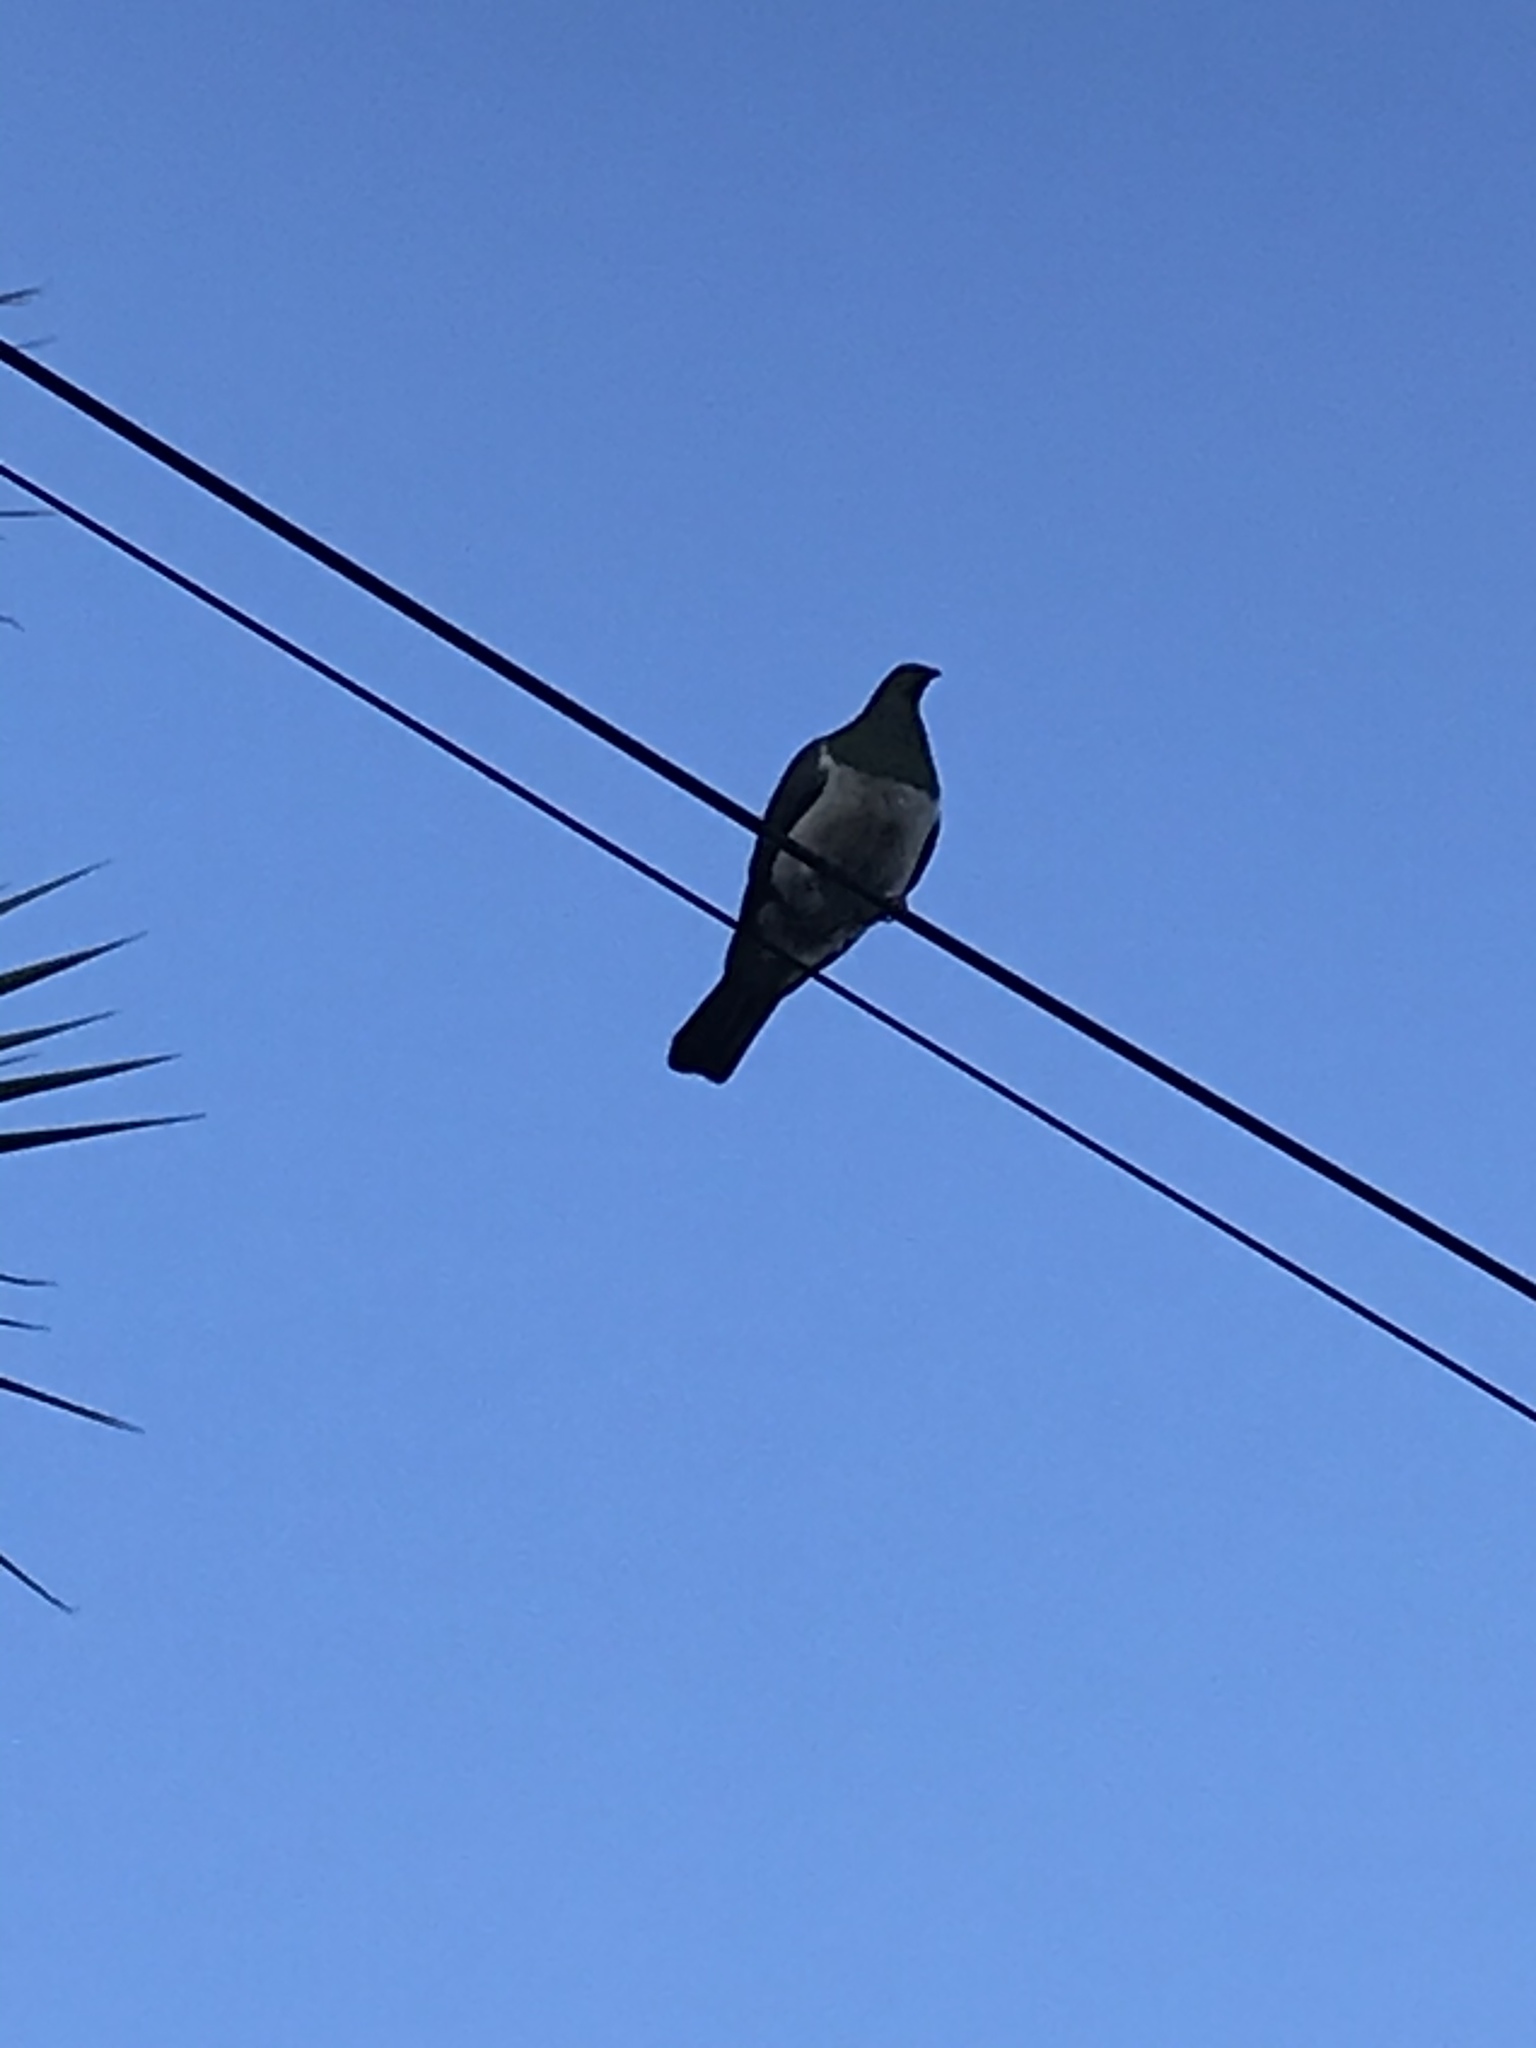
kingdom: Animalia
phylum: Chordata
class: Aves
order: Columbiformes
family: Columbidae
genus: Hemiphaga
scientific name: Hemiphaga novaeseelandiae
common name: New zealand pigeon
